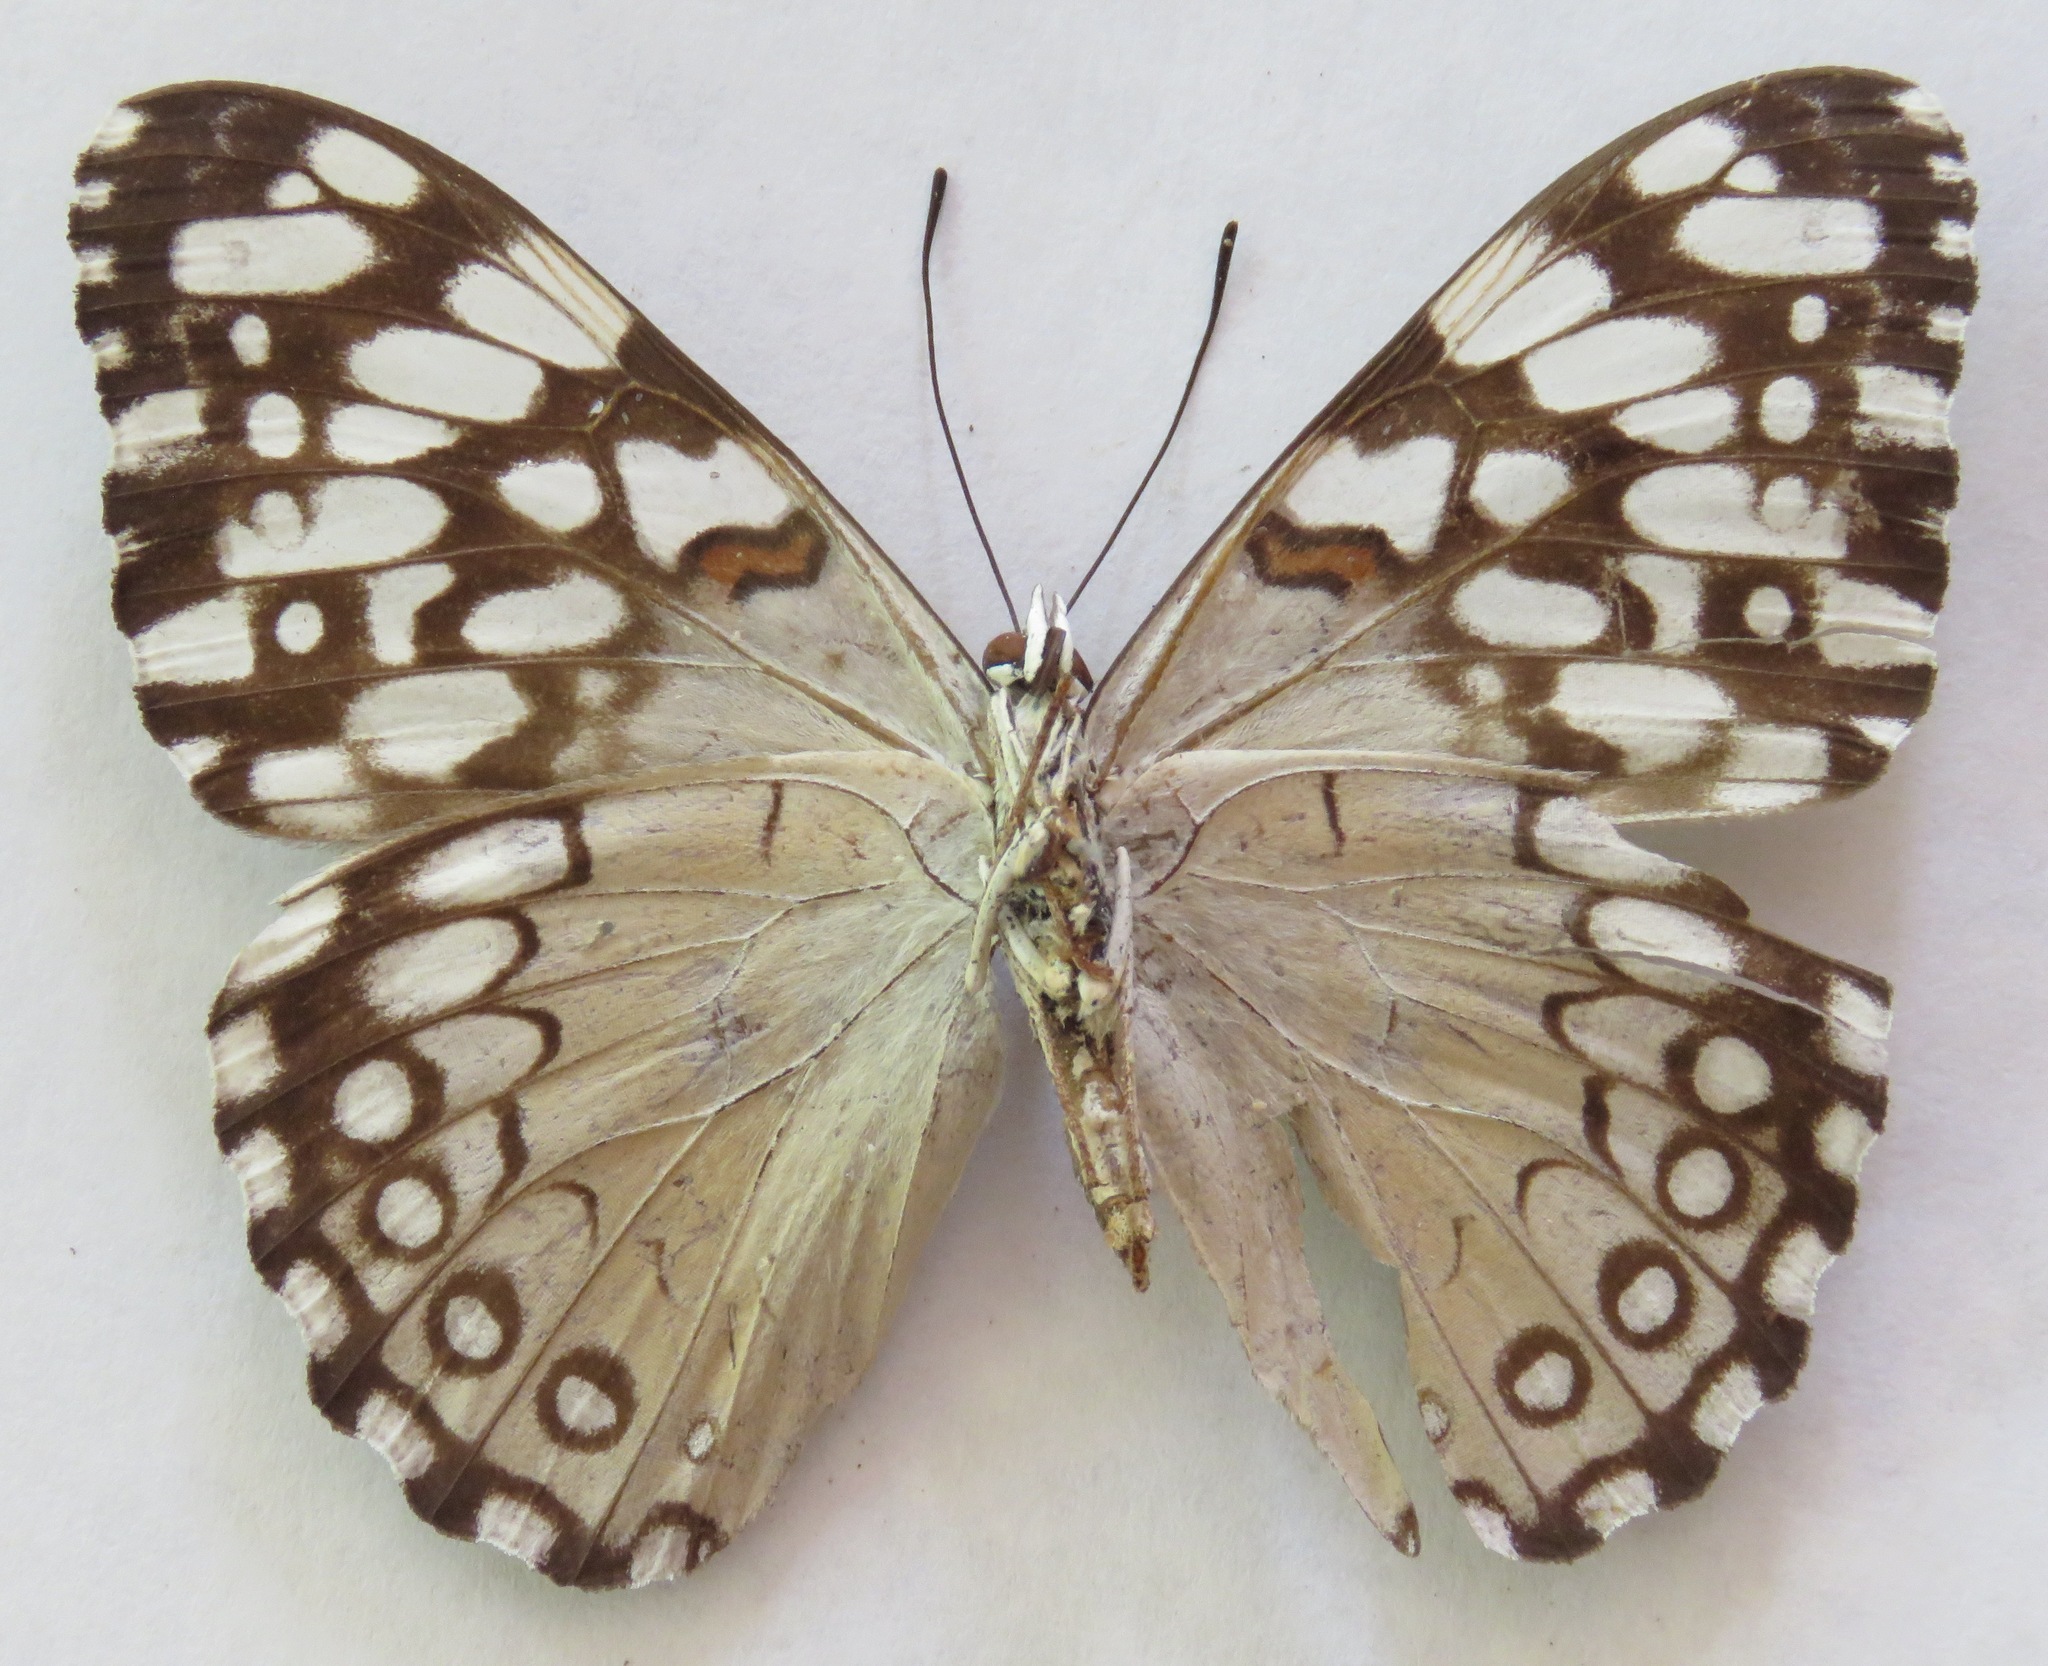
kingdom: Animalia
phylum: Arthropoda
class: Insecta
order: Lepidoptera
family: Nymphalidae
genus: Hamadryas
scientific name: Hamadryas feronia
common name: Variable cracker
